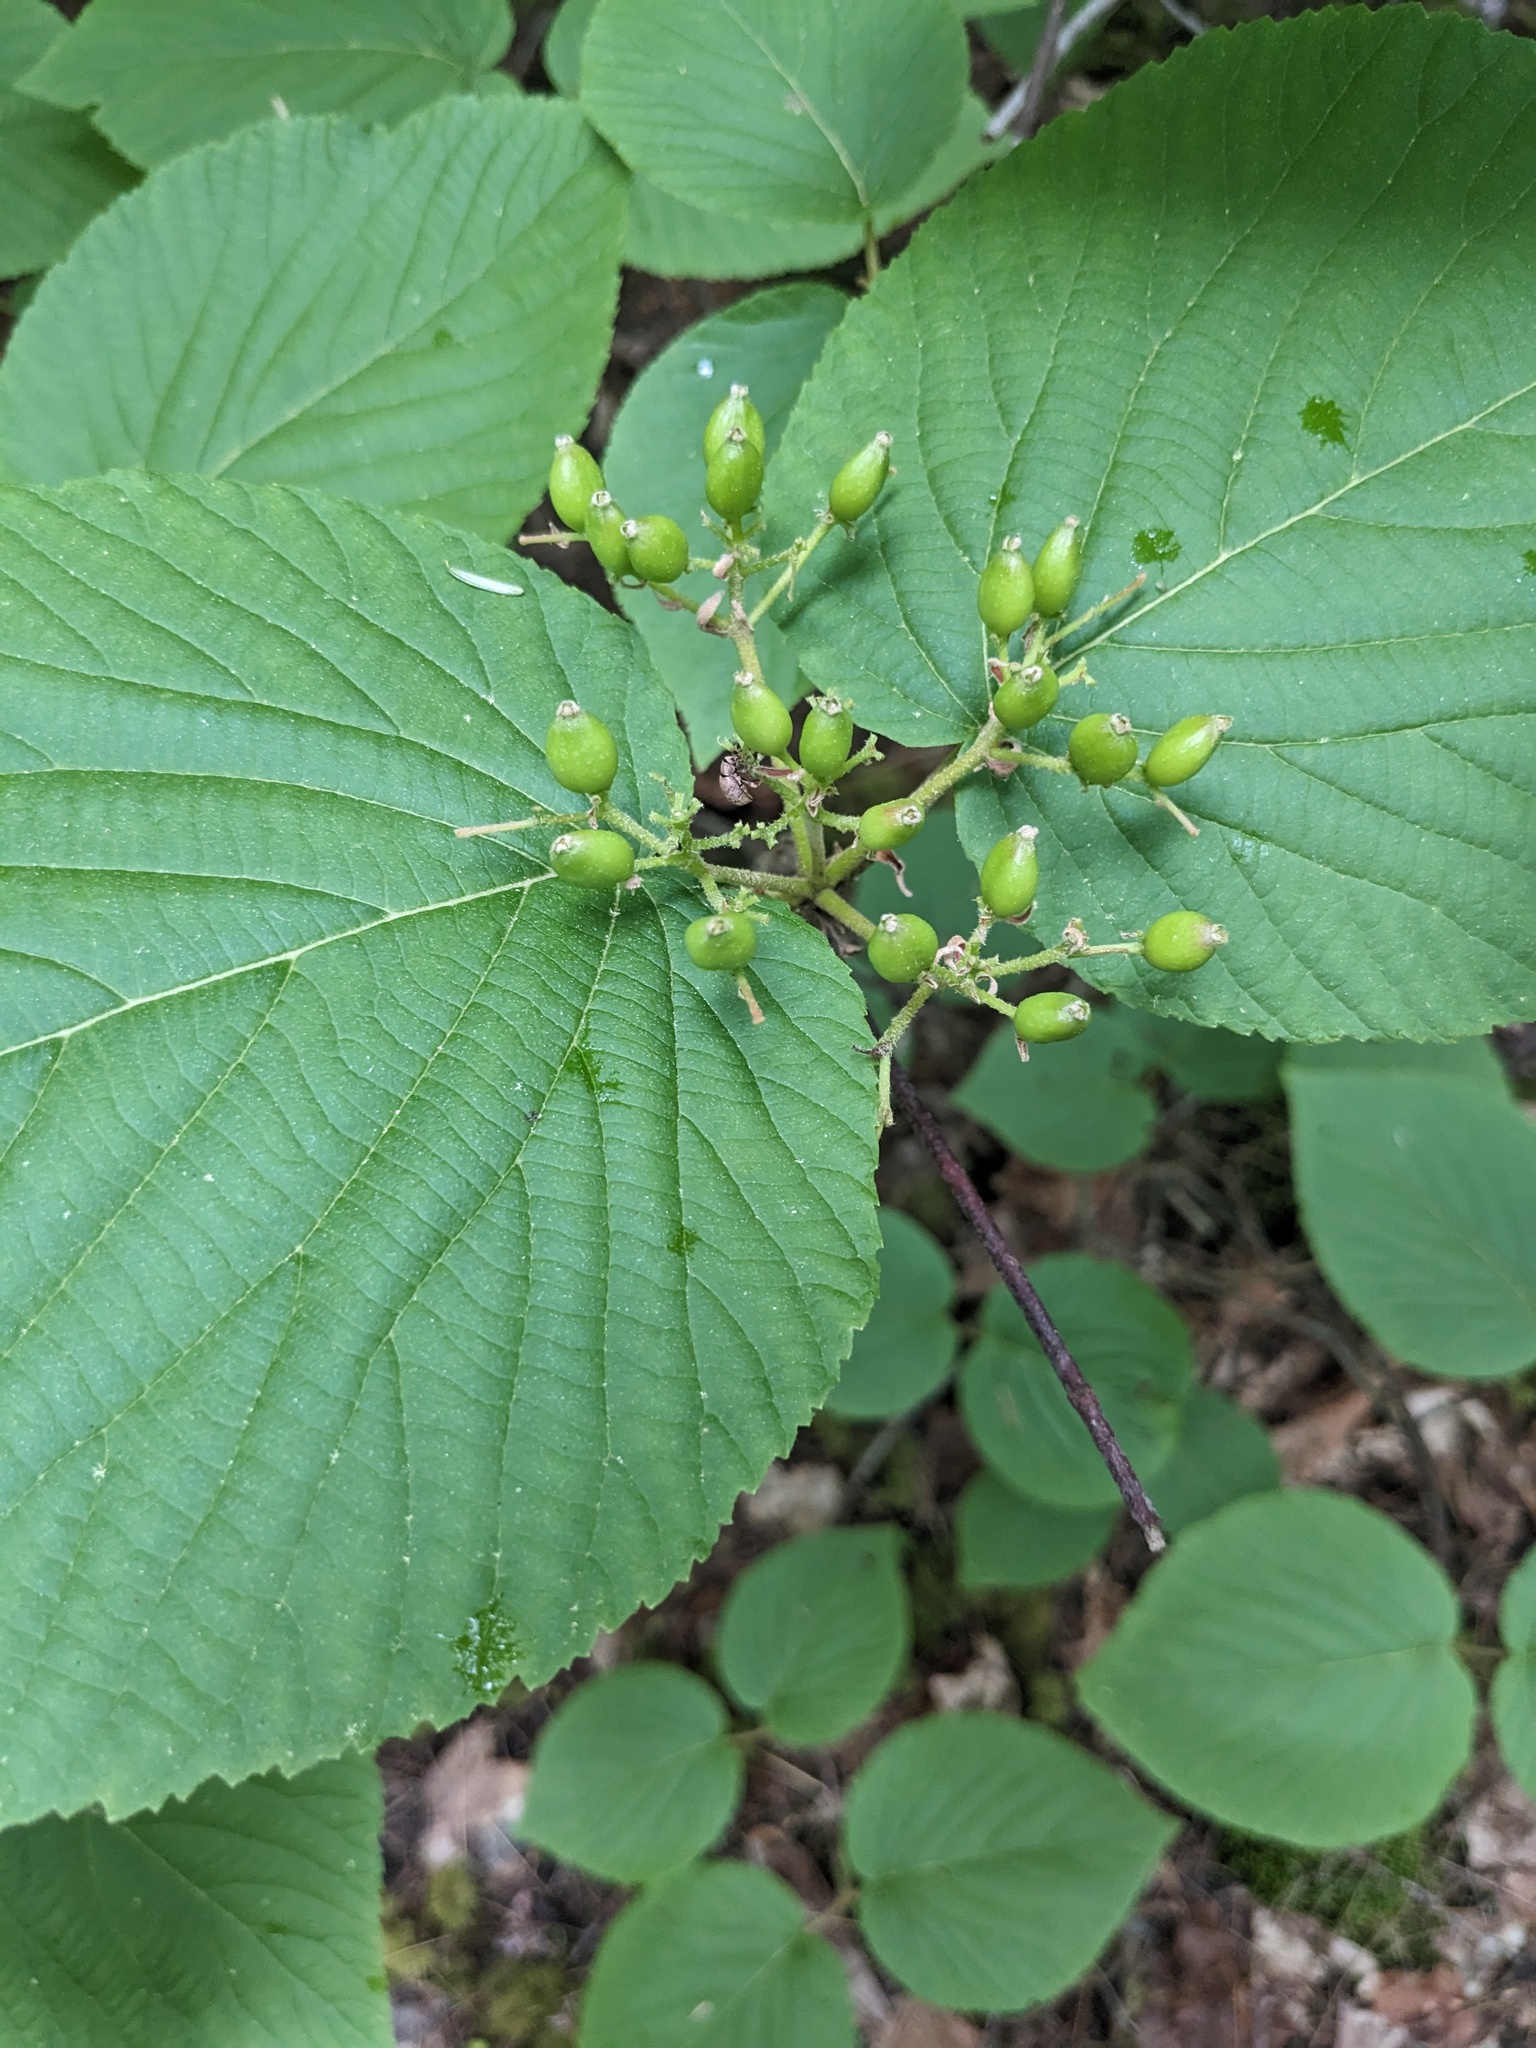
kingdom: Plantae
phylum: Tracheophyta
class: Magnoliopsida
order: Dipsacales
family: Viburnaceae
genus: Viburnum
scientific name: Viburnum lantanoides
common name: Hobblebush
